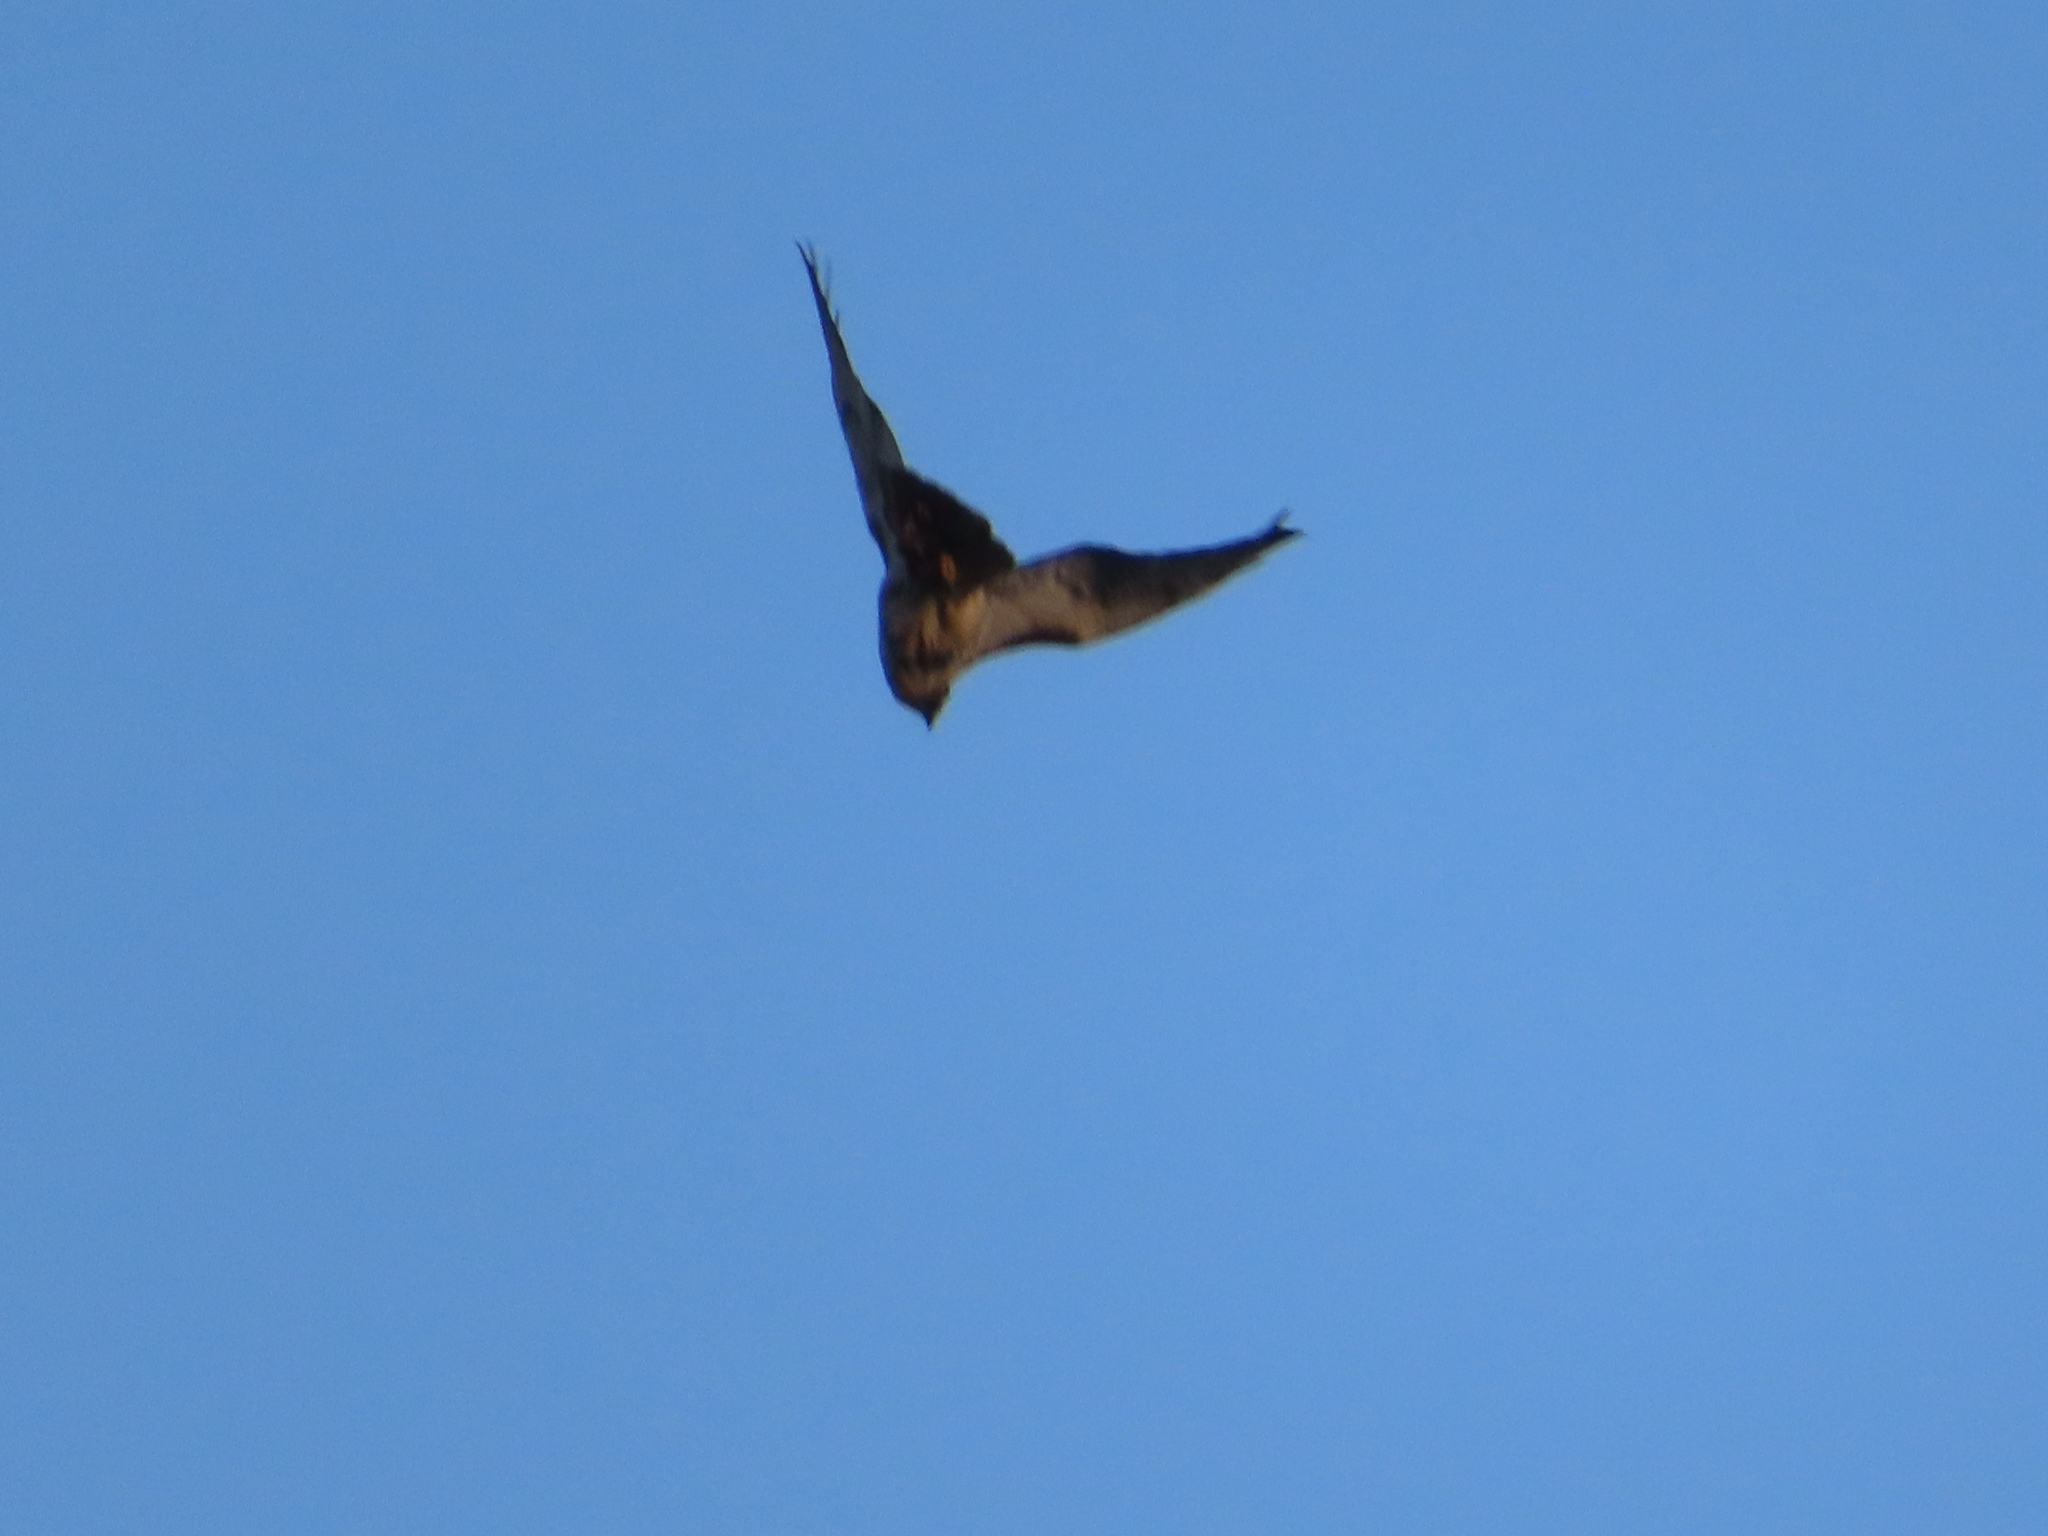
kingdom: Animalia
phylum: Chordata
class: Aves
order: Accipitriformes
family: Accipitridae
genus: Buteo
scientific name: Buteo jamaicensis
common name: Red-tailed hawk
